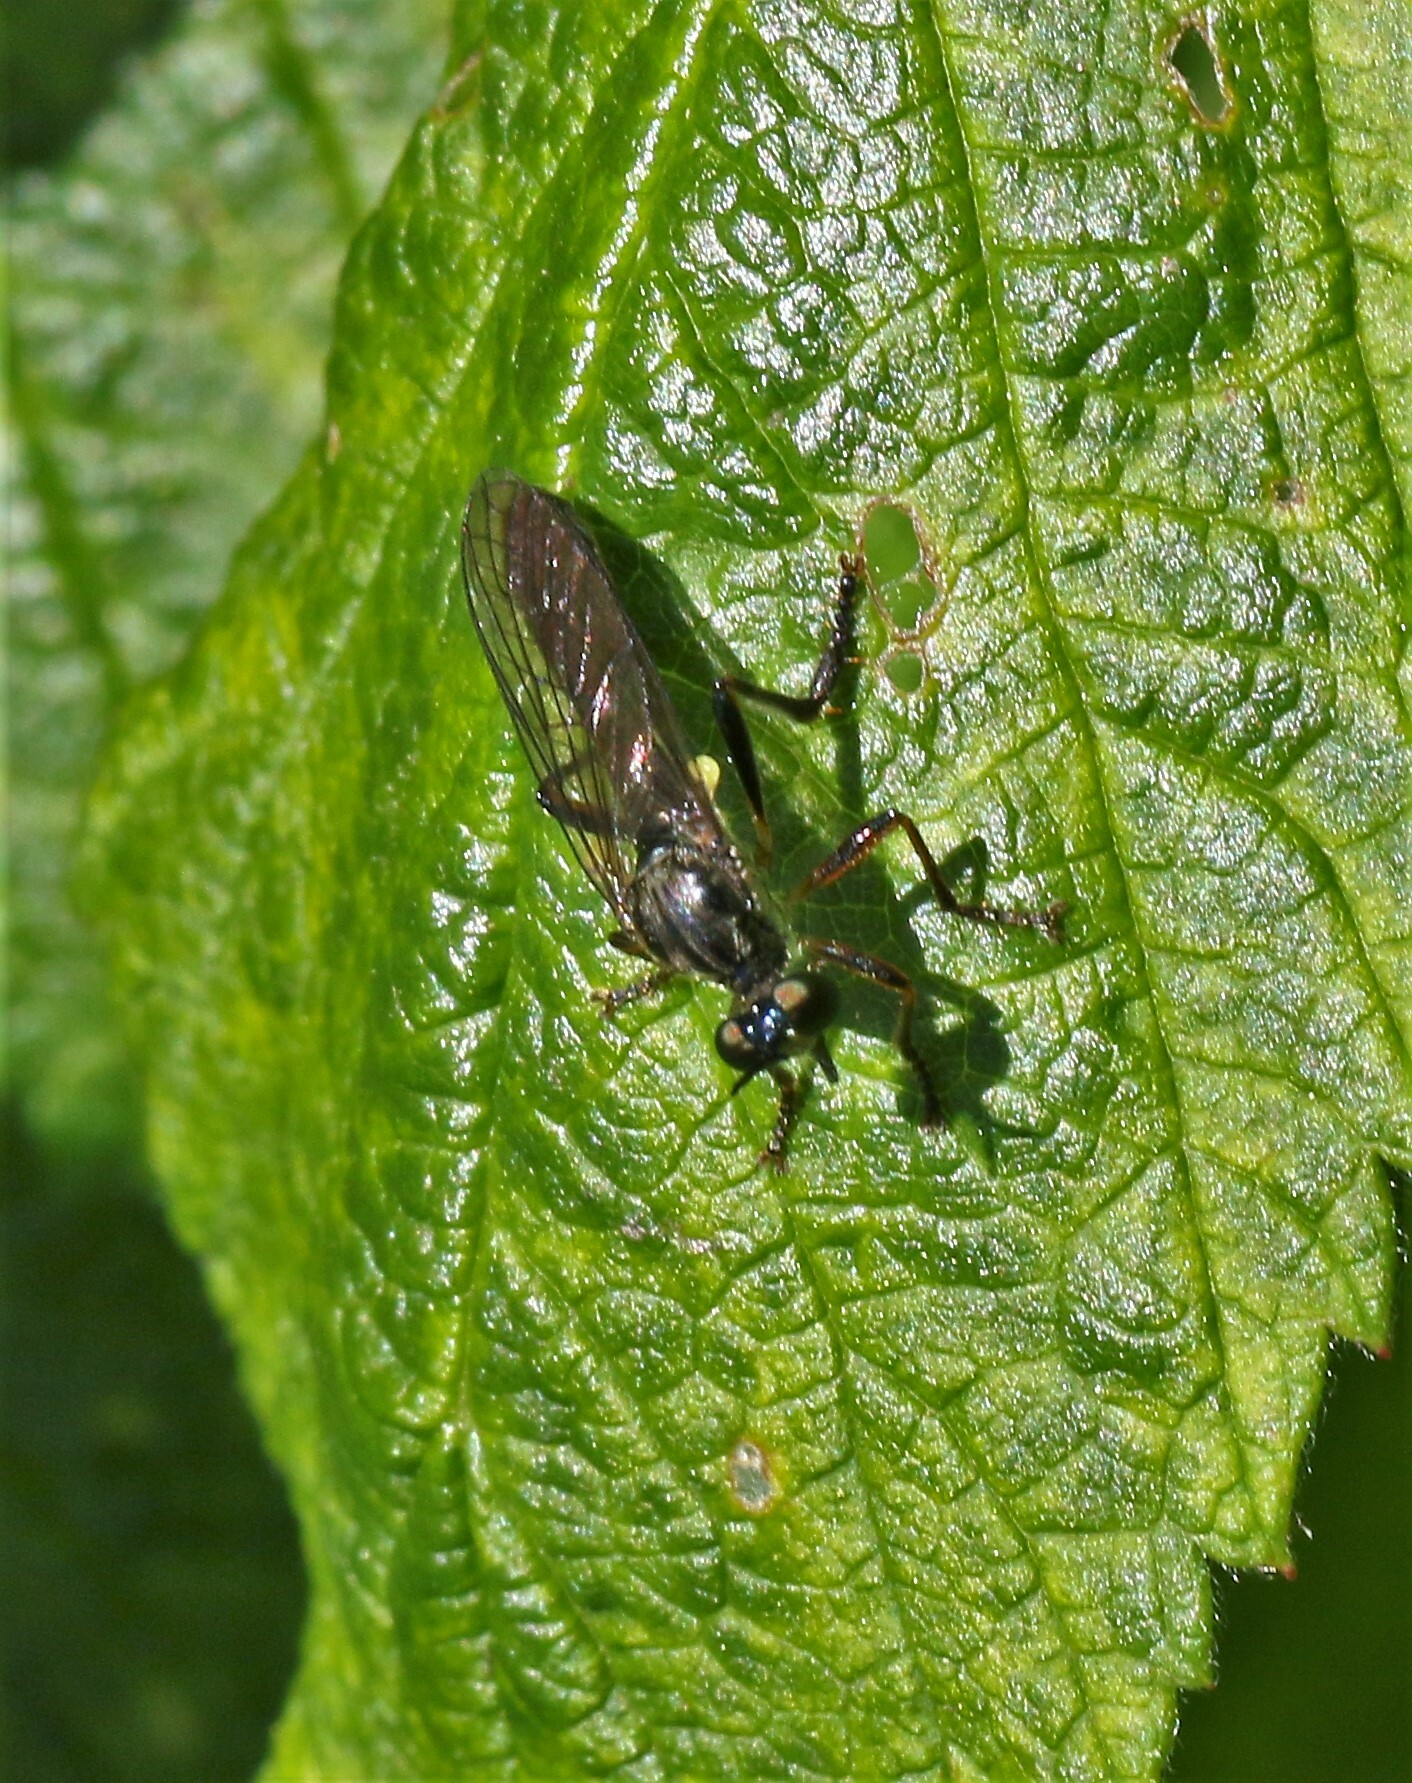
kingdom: Animalia
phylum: Arthropoda
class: Insecta
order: Diptera
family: Asilidae
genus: Dioctria
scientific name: Dioctria hyalipennis
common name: Stripe-legged robberfly
